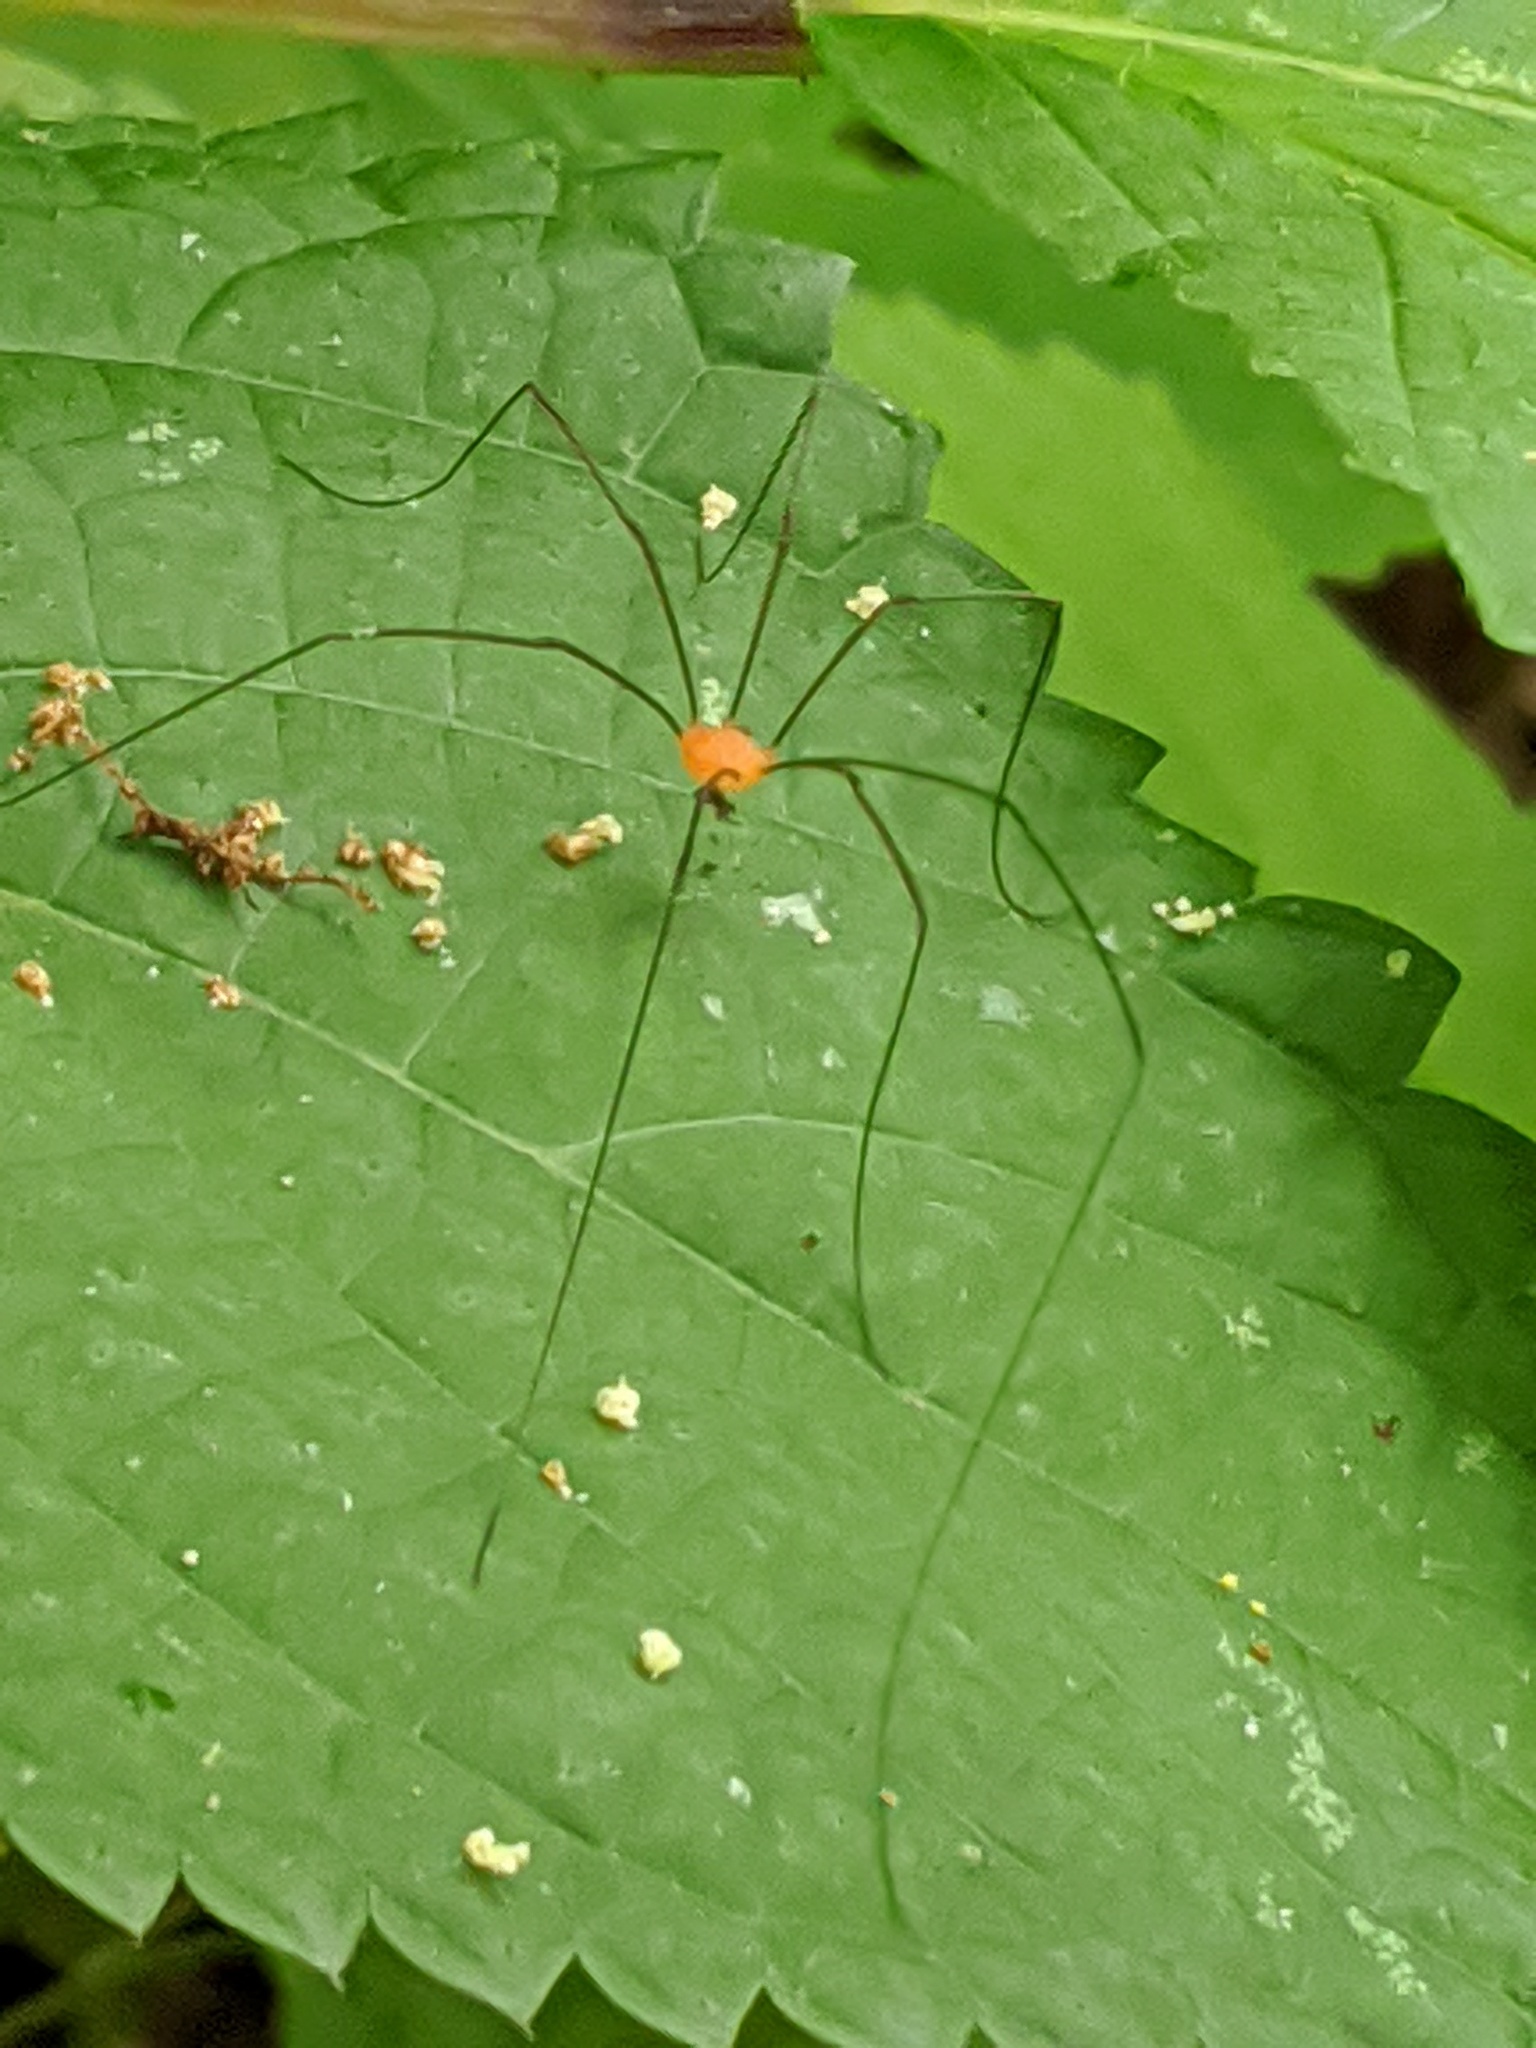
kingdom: Animalia
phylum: Arthropoda
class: Arachnida
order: Opiliones
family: Sclerosomatidae
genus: Leiobunum
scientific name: Leiobunum politum
